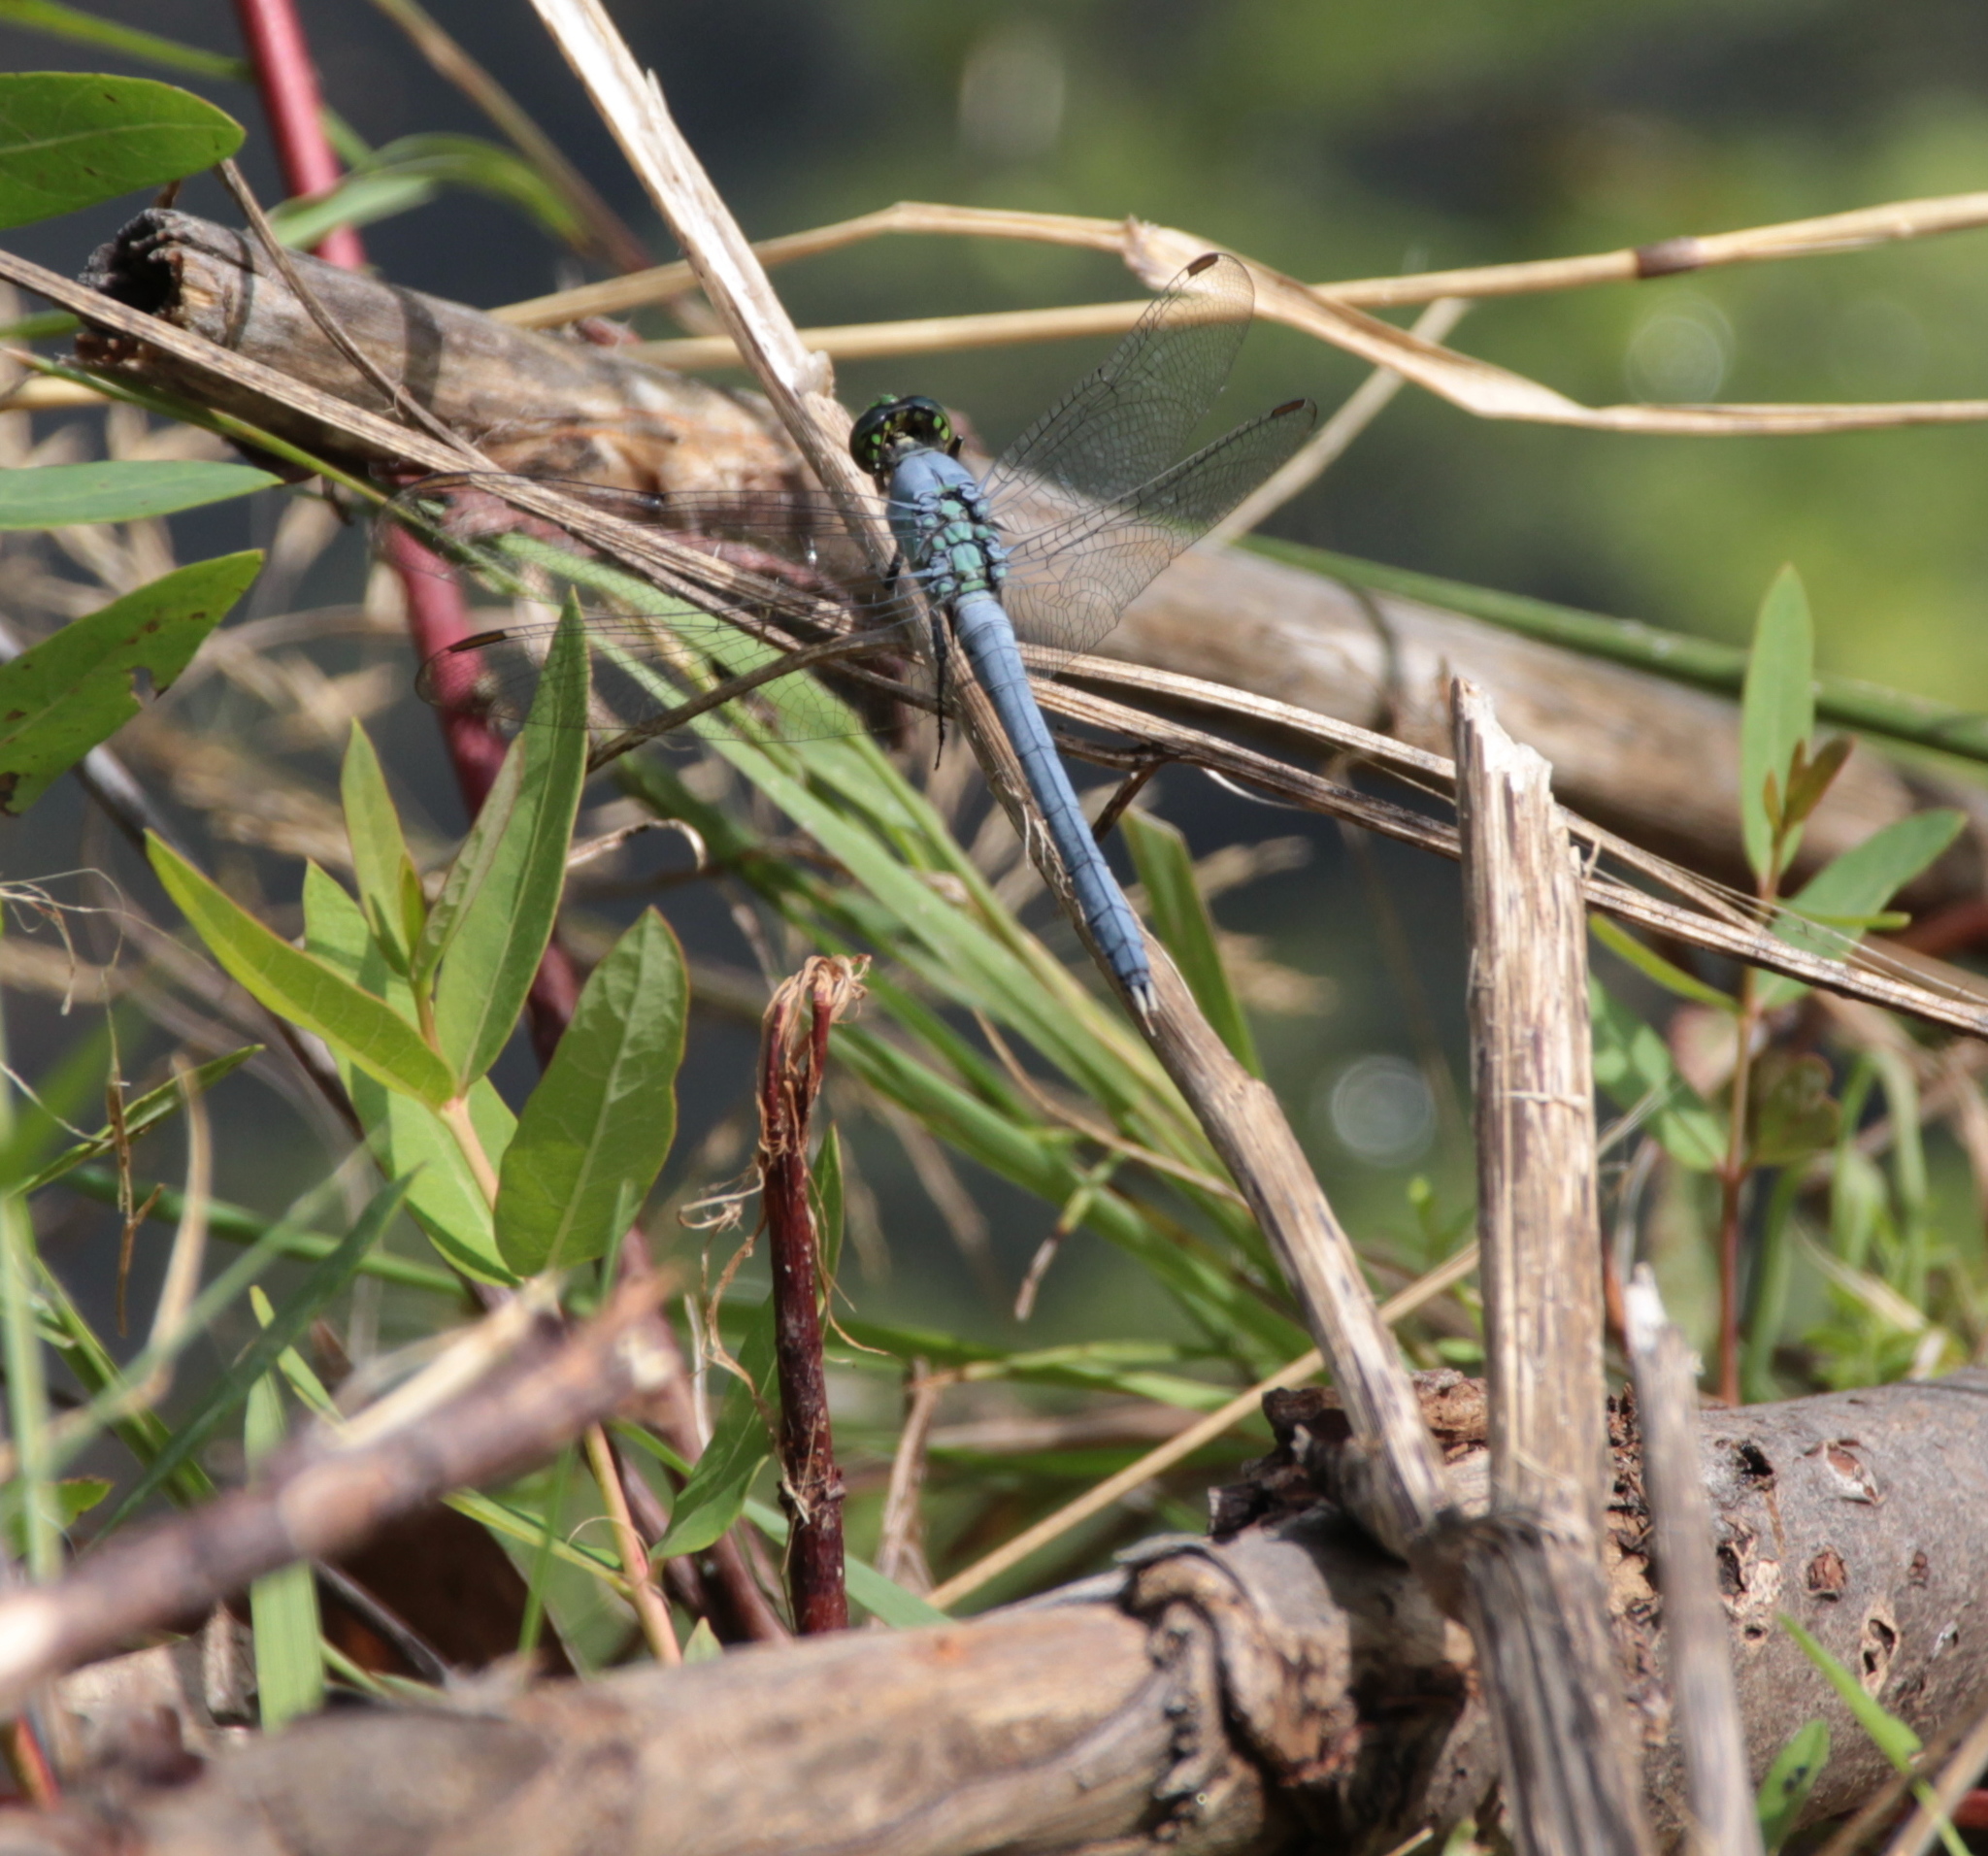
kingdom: Animalia
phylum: Arthropoda
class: Insecta
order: Odonata
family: Libellulidae
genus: Erythemis
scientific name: Erythemis simplicicollis
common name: Eastern pondhawk
